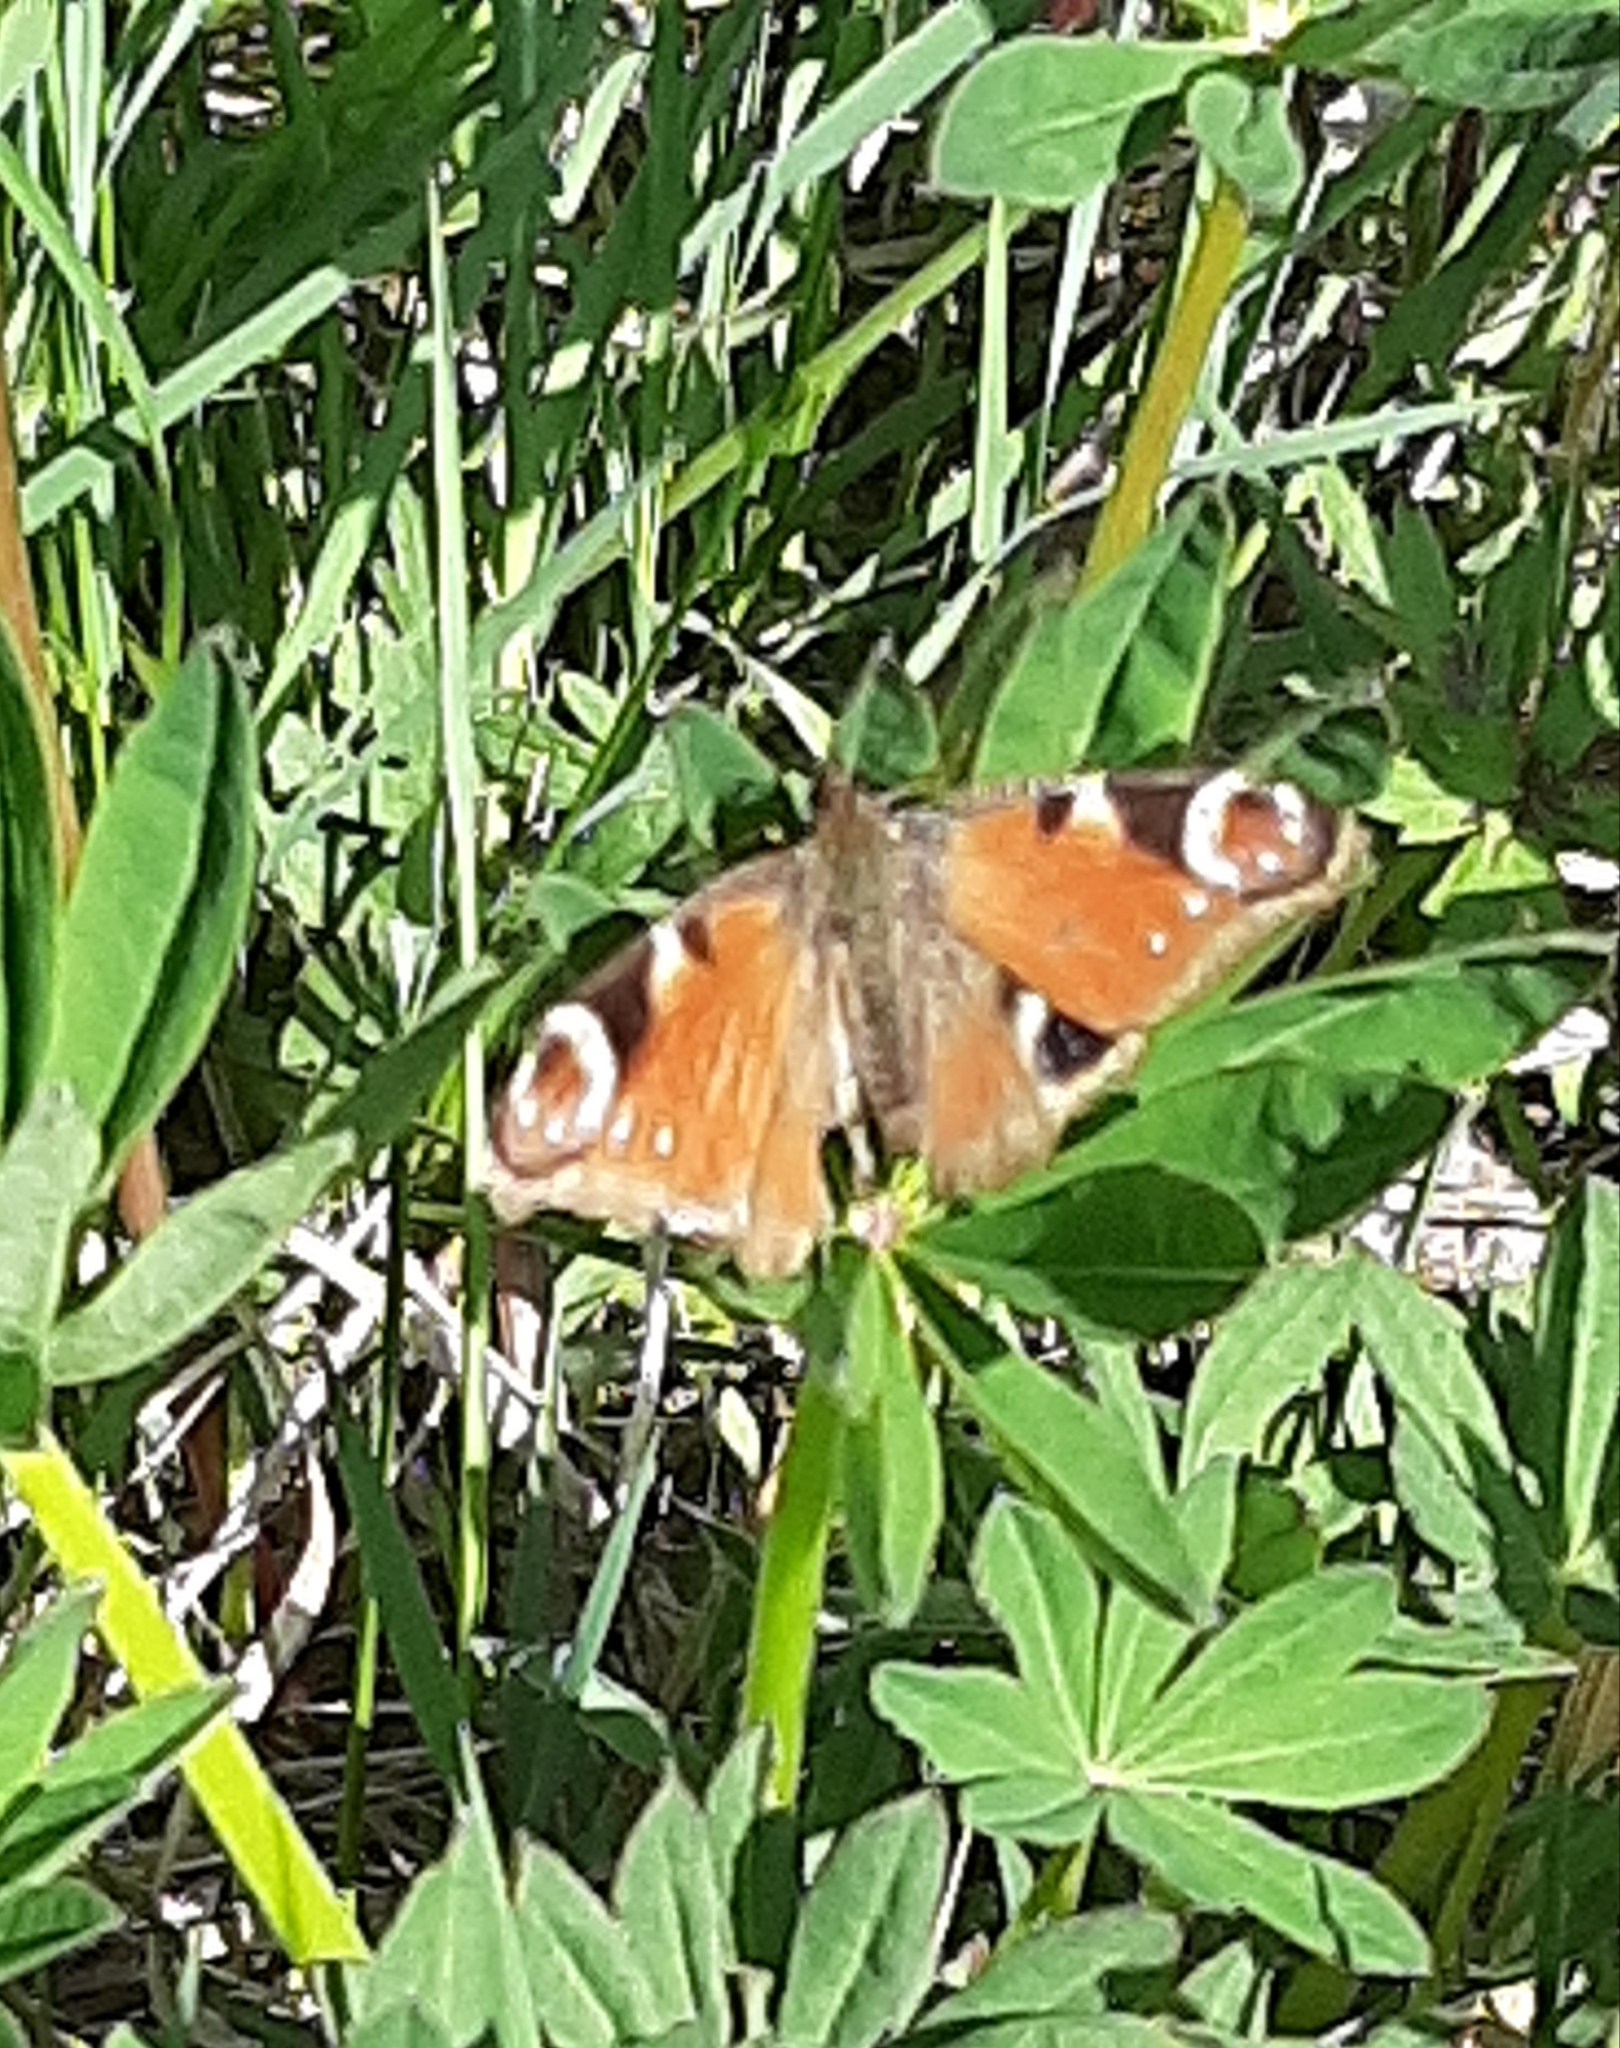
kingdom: Animalia
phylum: Arthropoda
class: Insecta
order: Lepidoptera
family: Nymphalidae
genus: Aglais
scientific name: Aglais io
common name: Peacock
